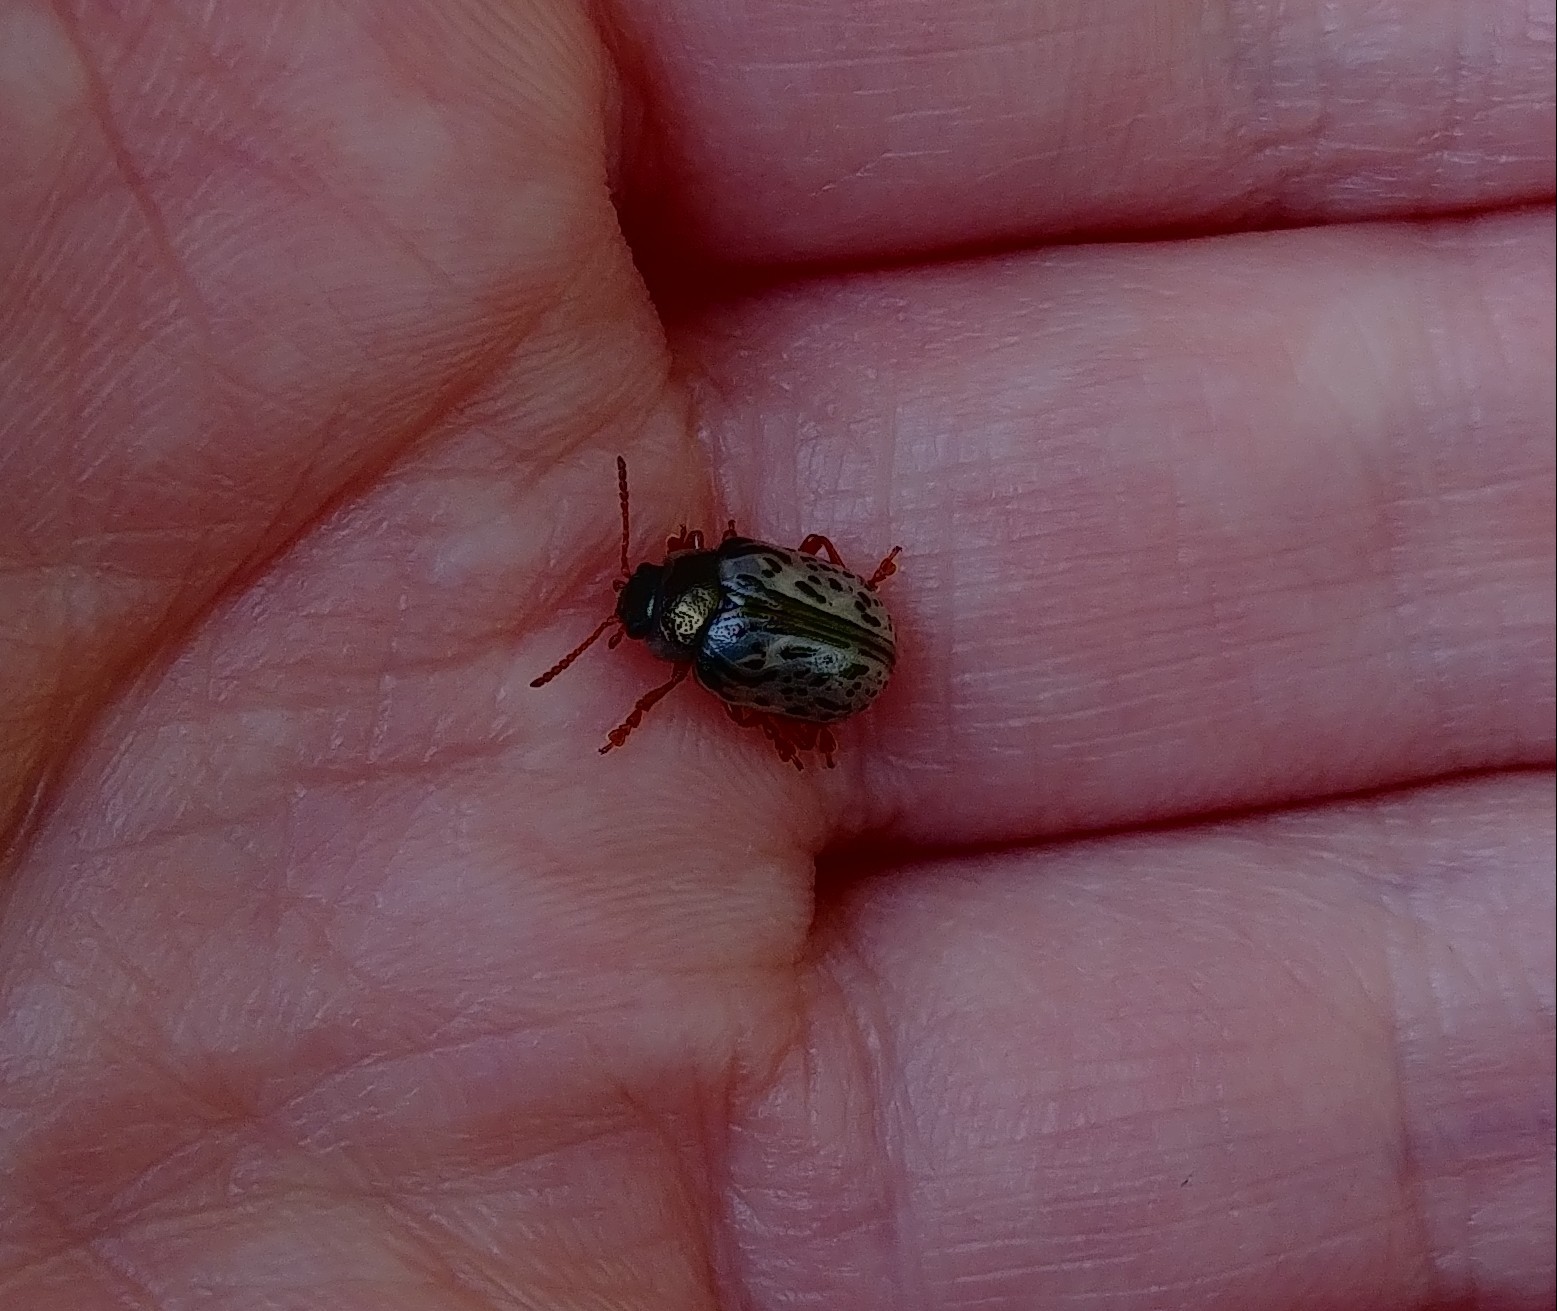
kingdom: Animalia
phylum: Arthropoda
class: Insecta
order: Coleoptera
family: Chrysomelidae
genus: Calligrapha
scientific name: Calligrapha suturella
